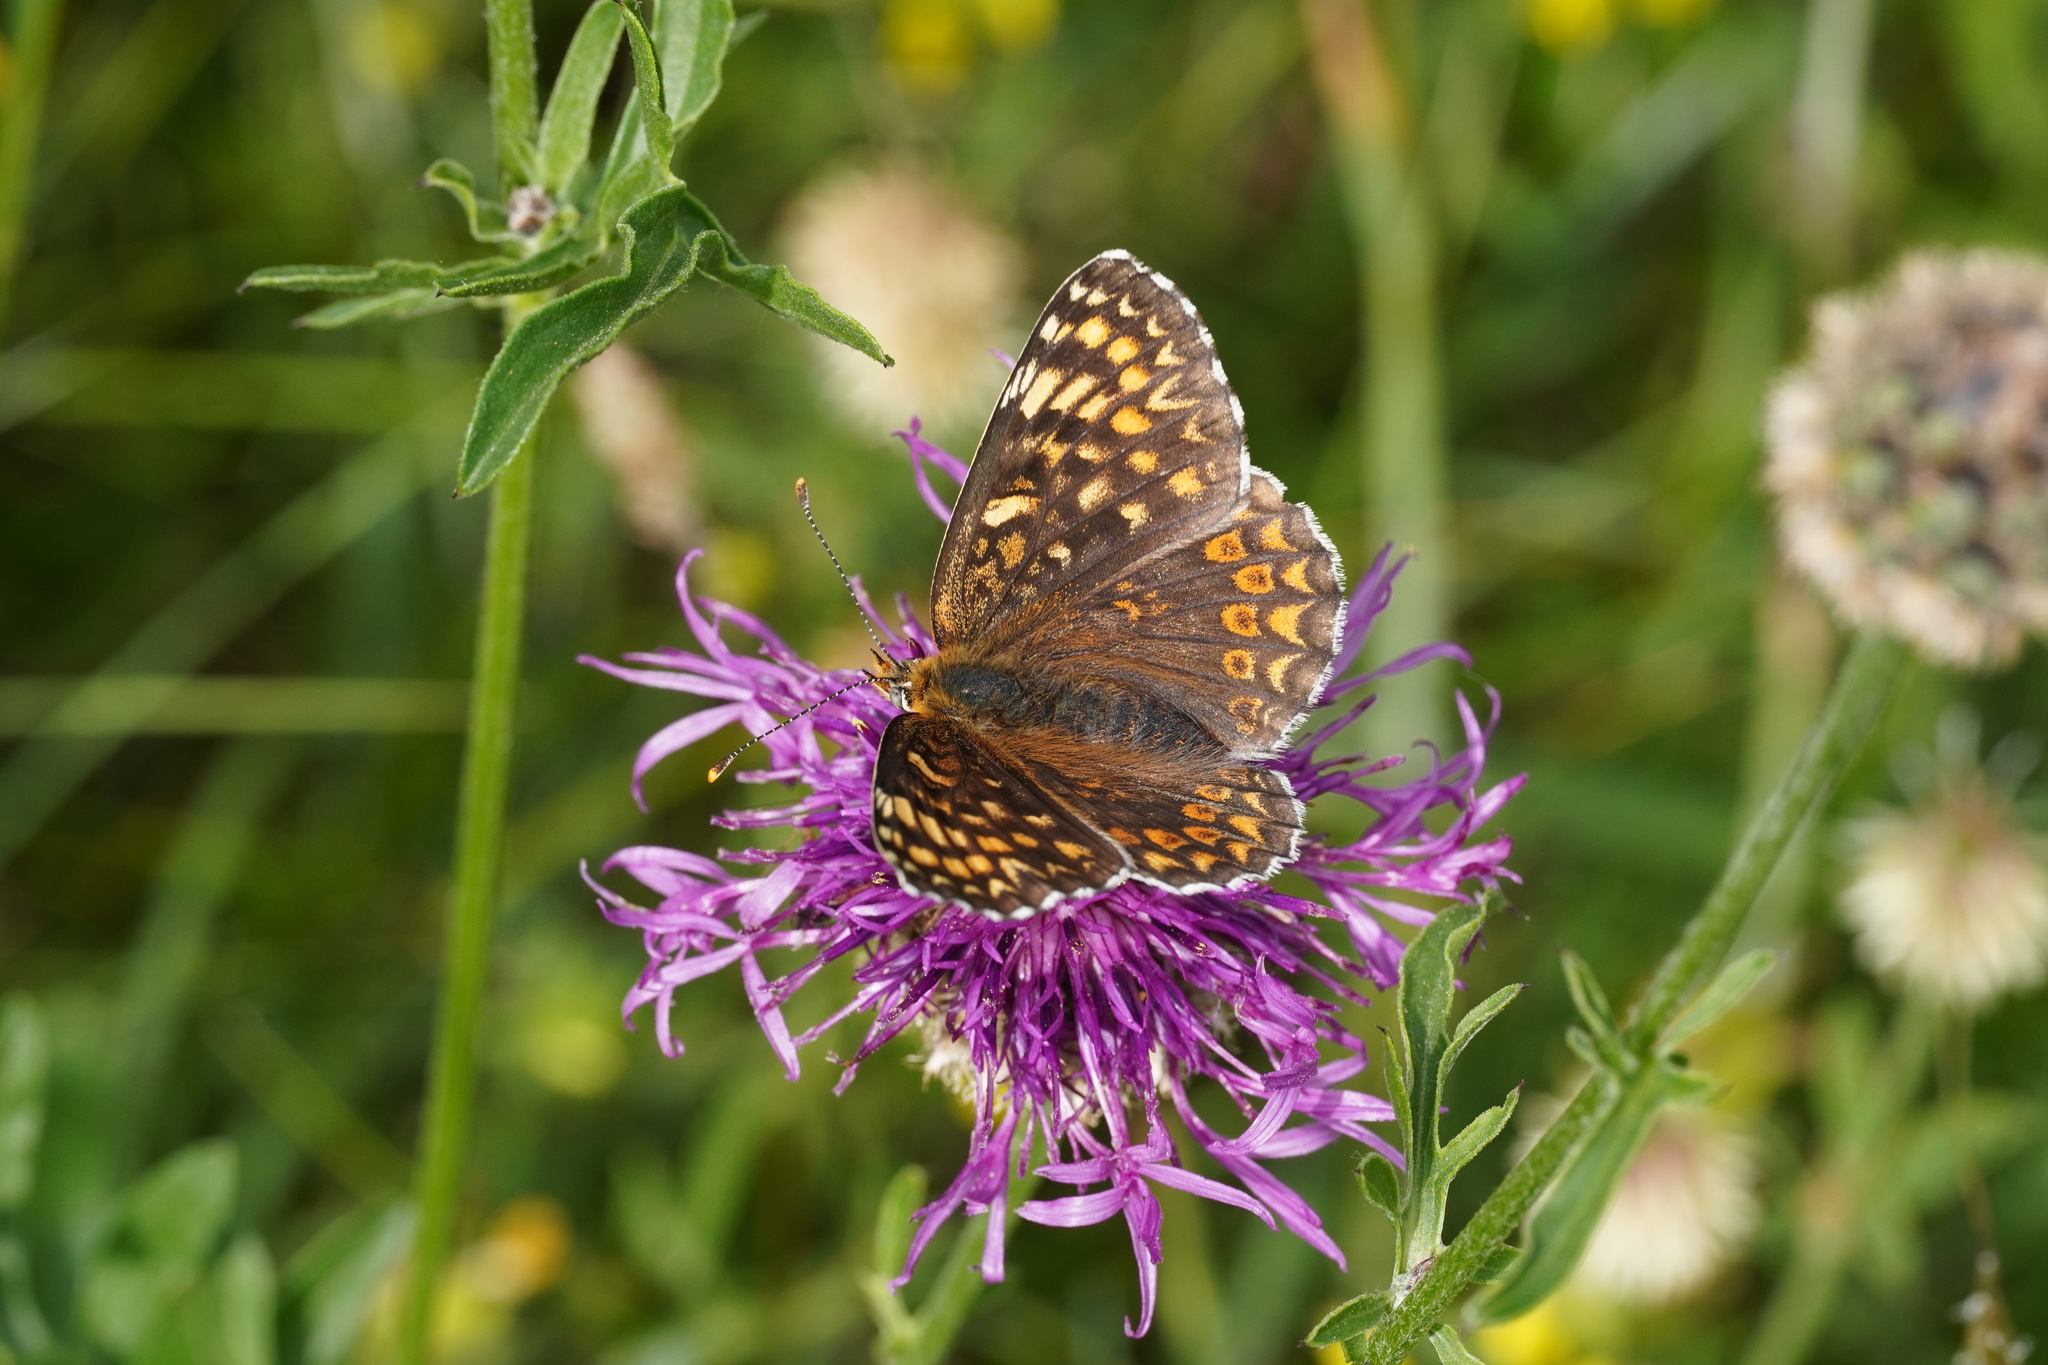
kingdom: Animalia
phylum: Arthropoda
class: Insecta
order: Lepidoptera
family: Nymphalidae
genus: Melitaea
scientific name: Melitaea phoebe
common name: Knapweed fritillary
